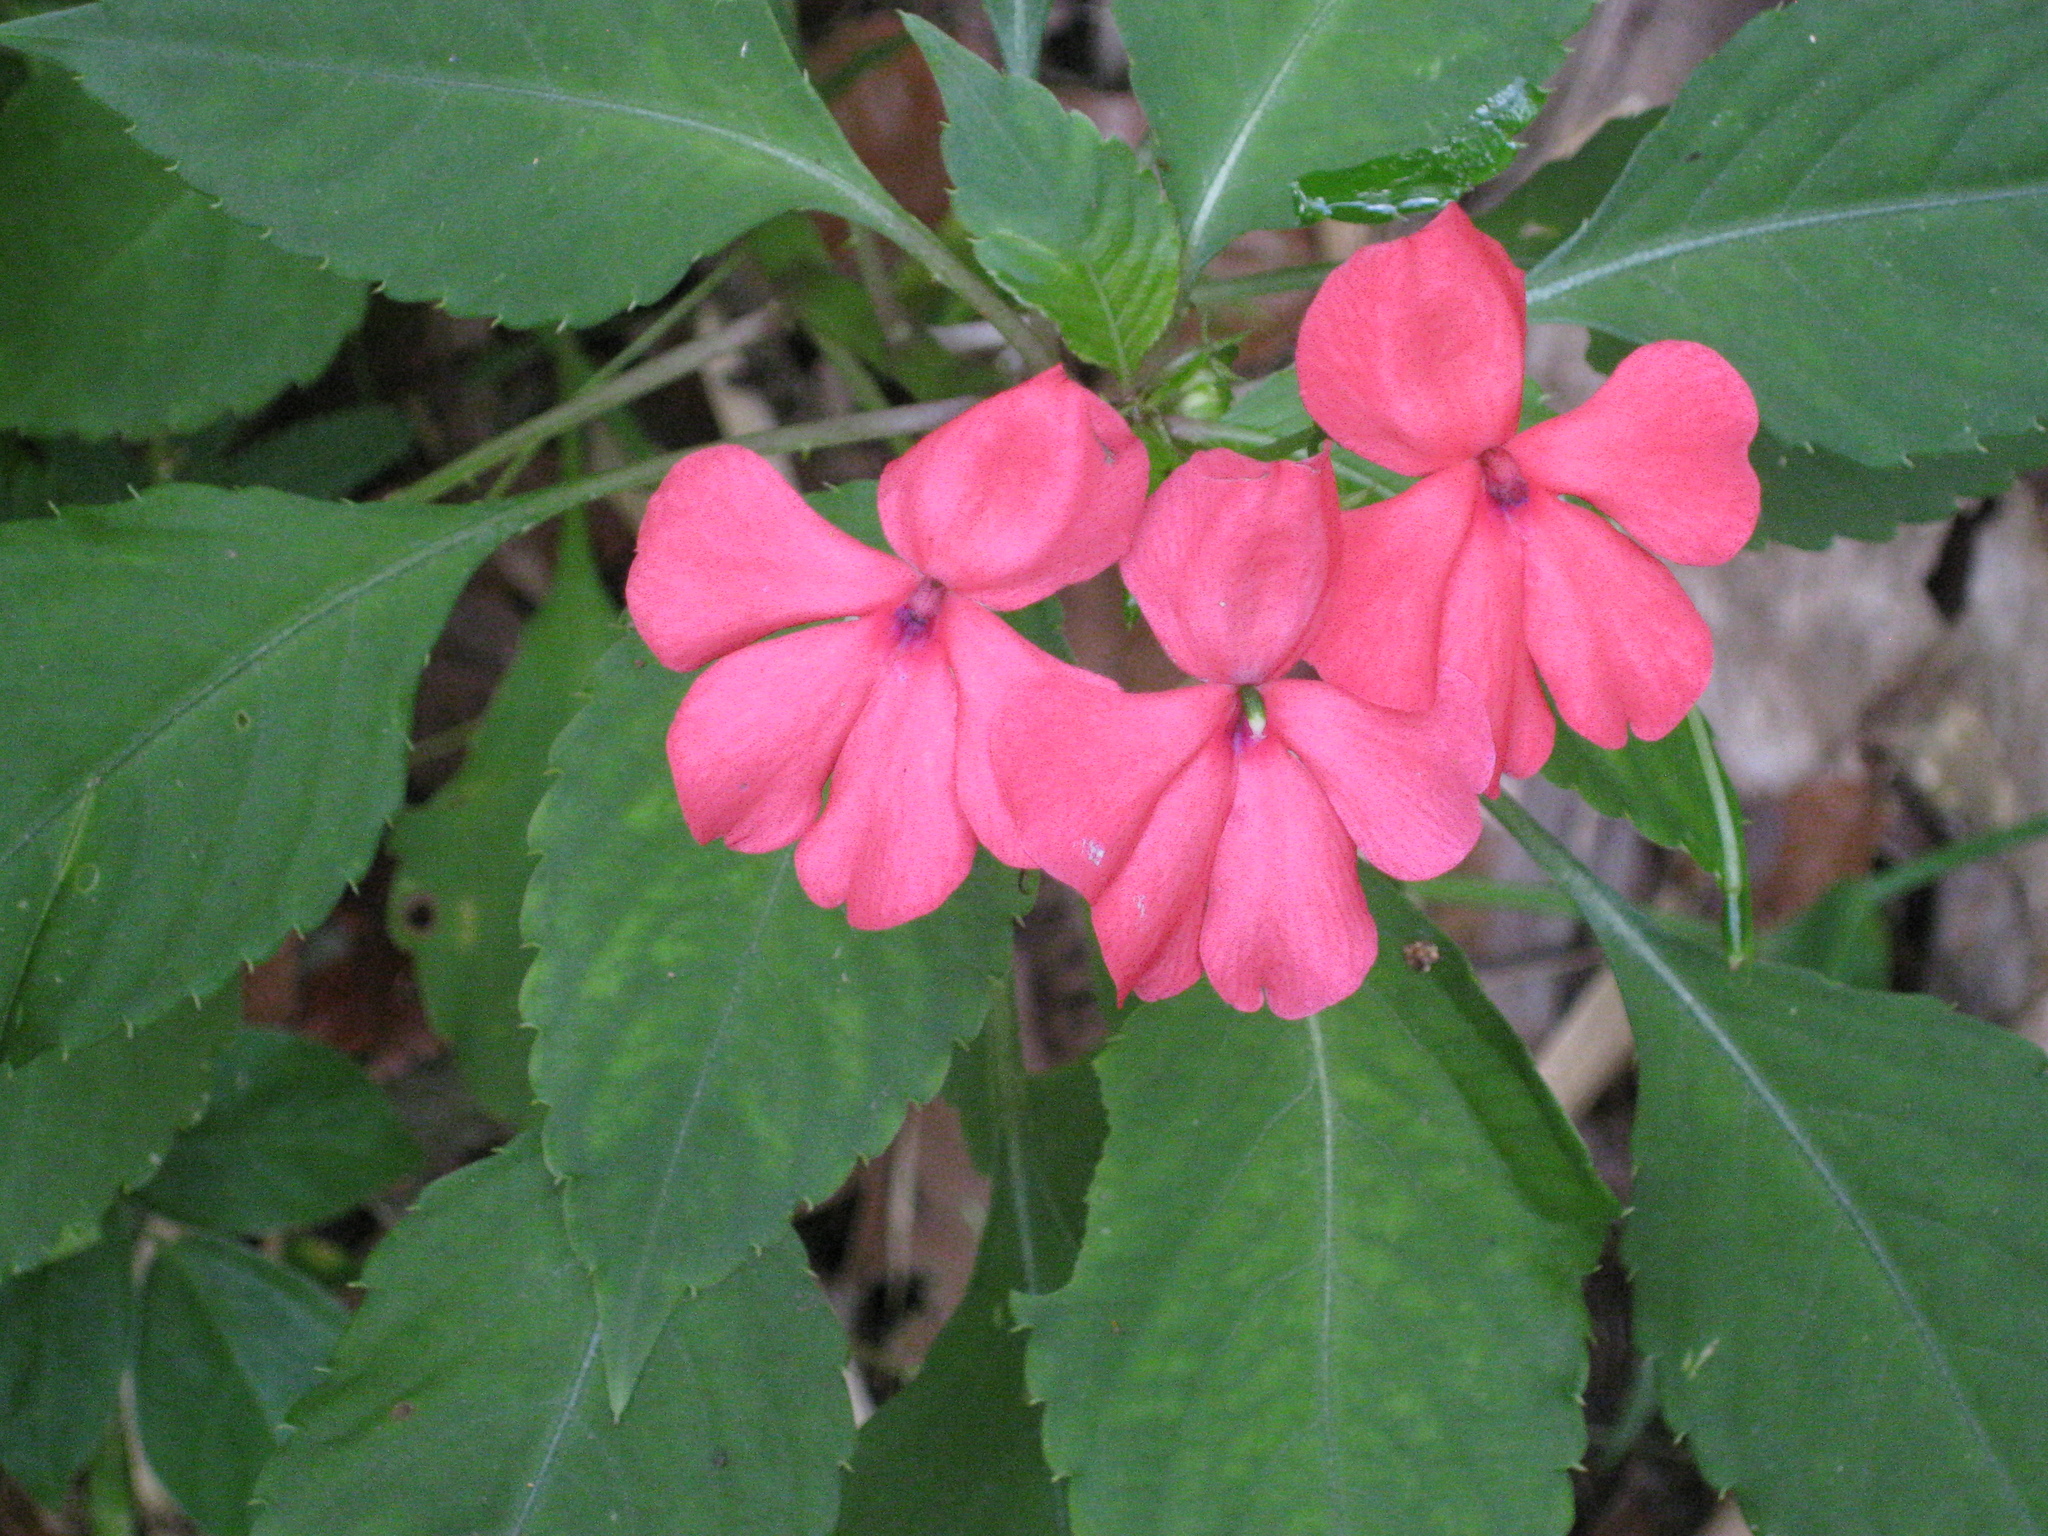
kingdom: Plantae
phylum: Tracheophyta
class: Magnoliopsida
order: Ericales
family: Balsaminaceae
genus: Impatiens
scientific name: Impatiens walleriana
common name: Buzzy lizzy
